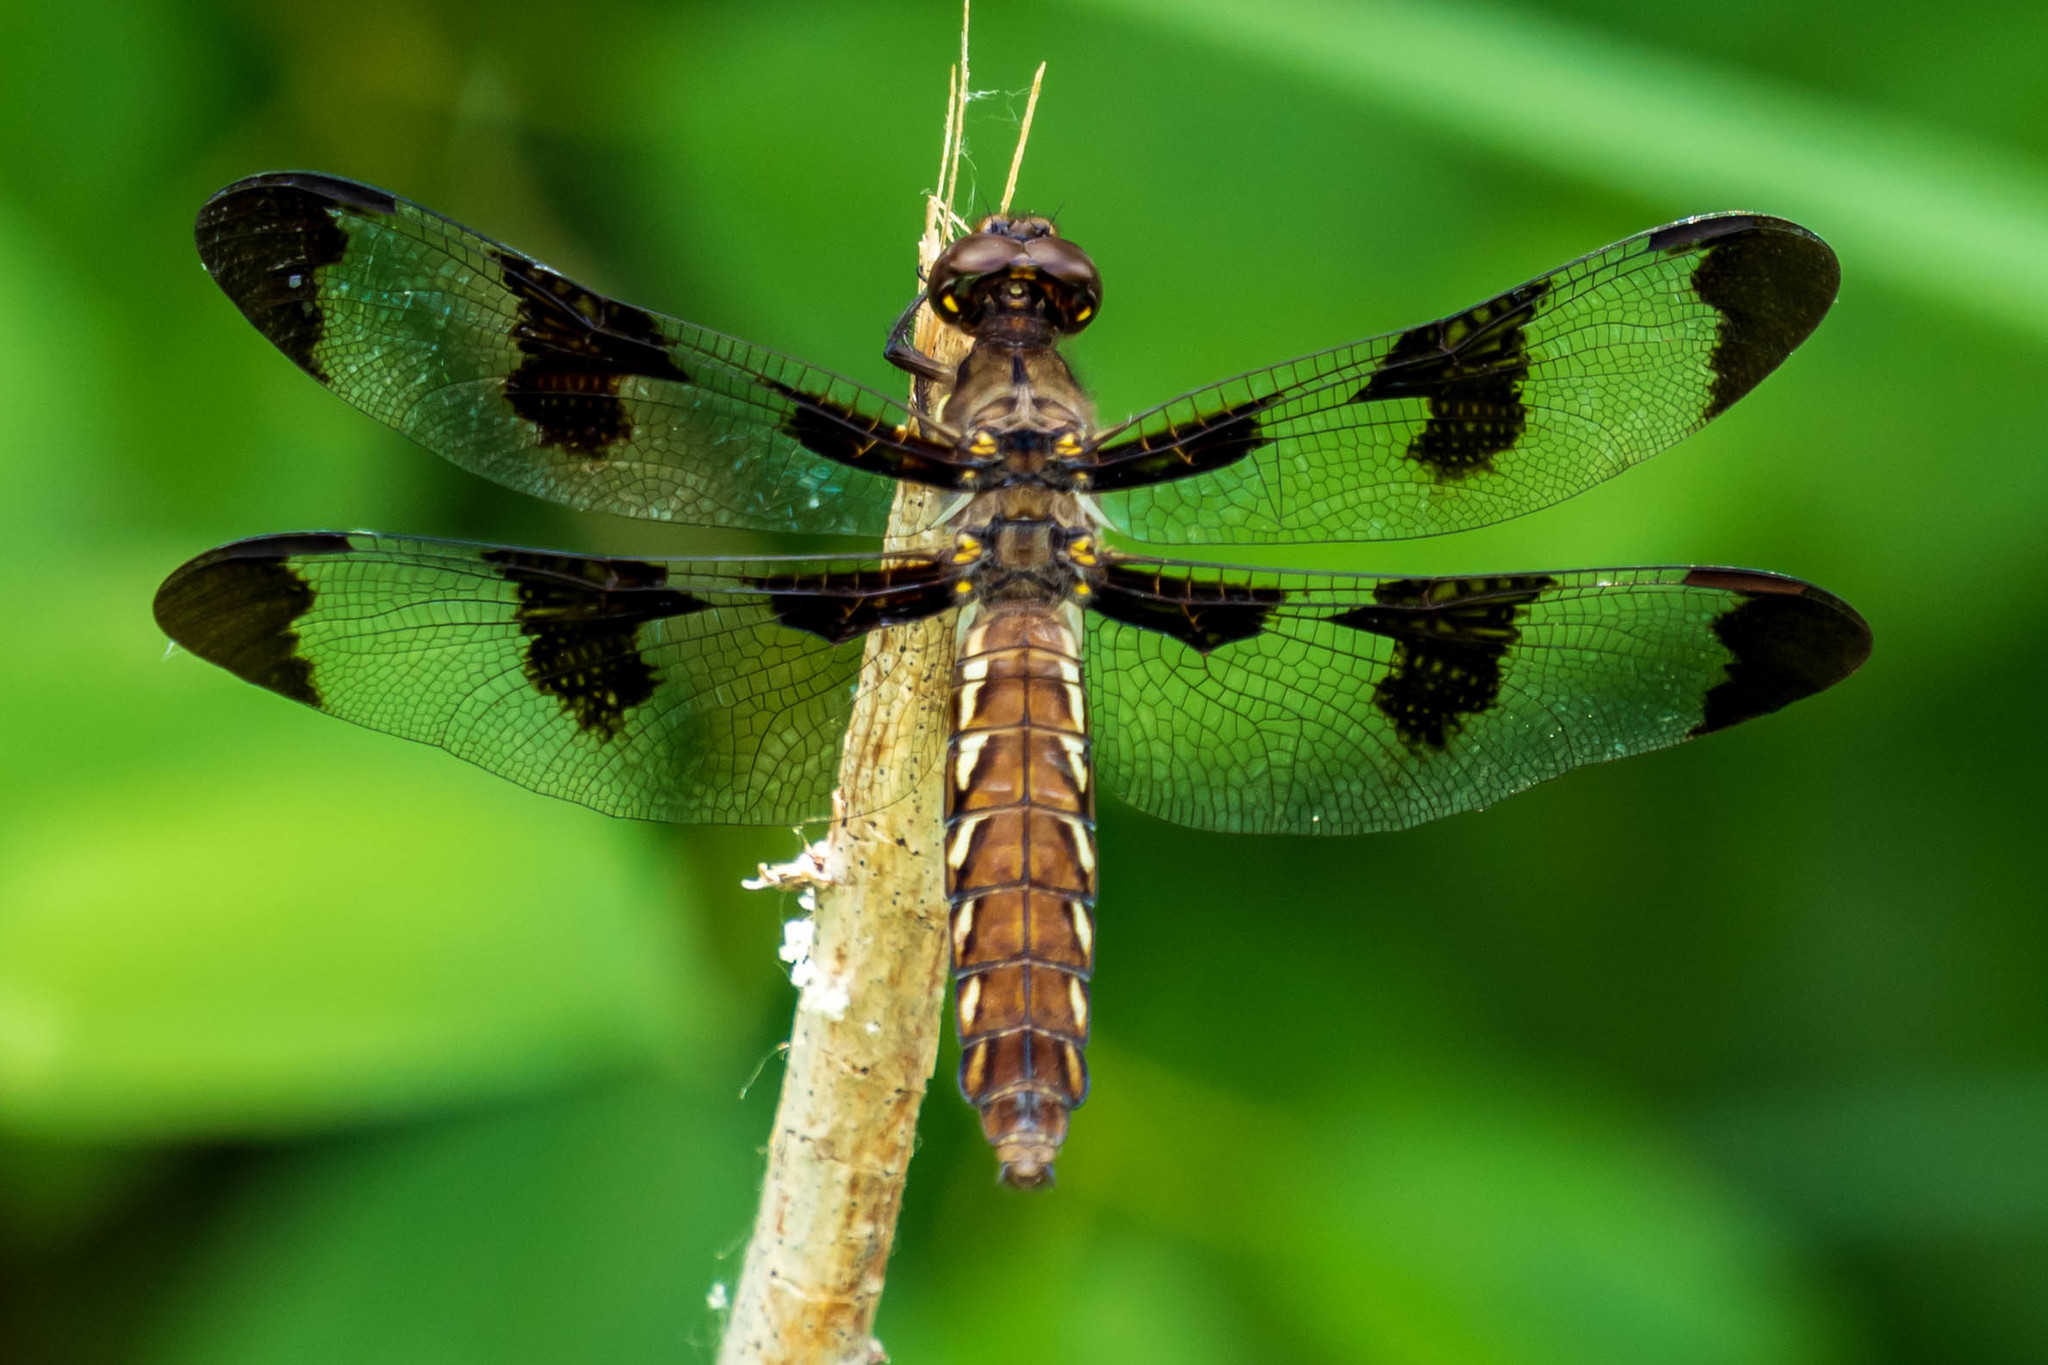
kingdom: Animalia
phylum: Arthropoda
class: Insecta
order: Odonata
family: Libellulidae
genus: Plathemis
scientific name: Plathemis lydia
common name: Common whitetail
